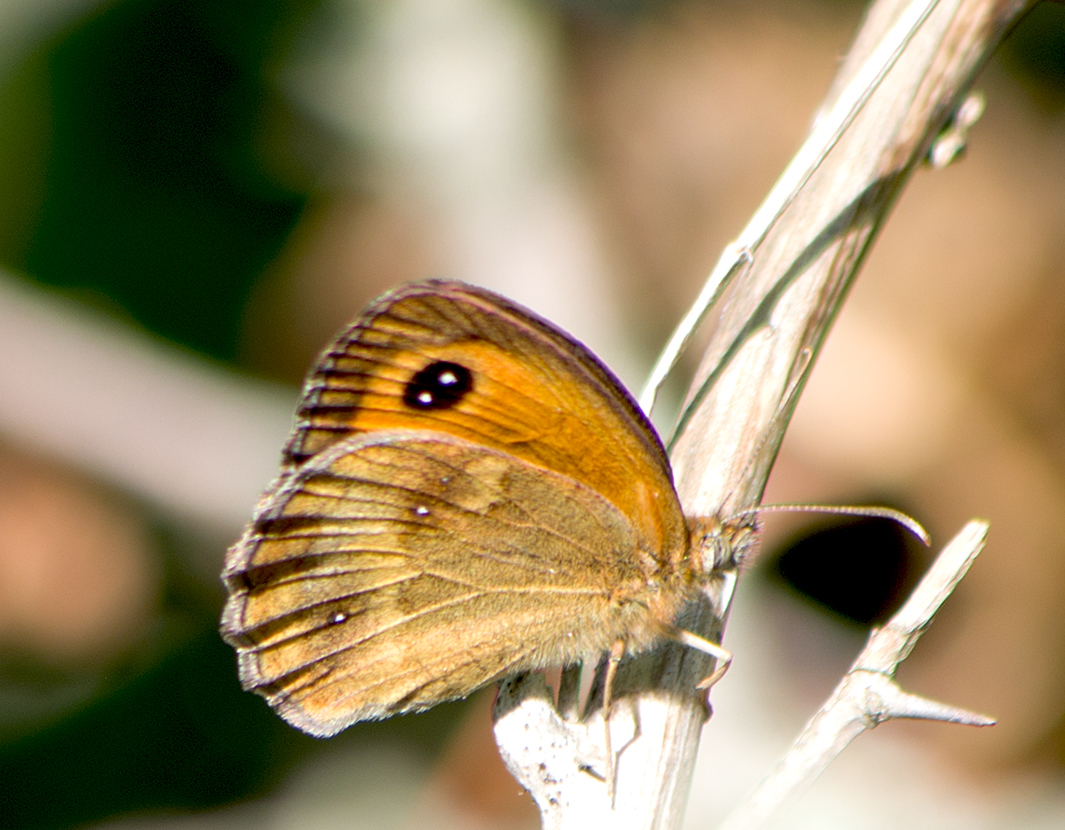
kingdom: Animalia
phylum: Arthropoda
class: Insecta
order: Lepidoptera
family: Nymphalidae
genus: Pyronia
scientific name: Pyronia tithonus
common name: Gatekeeper
